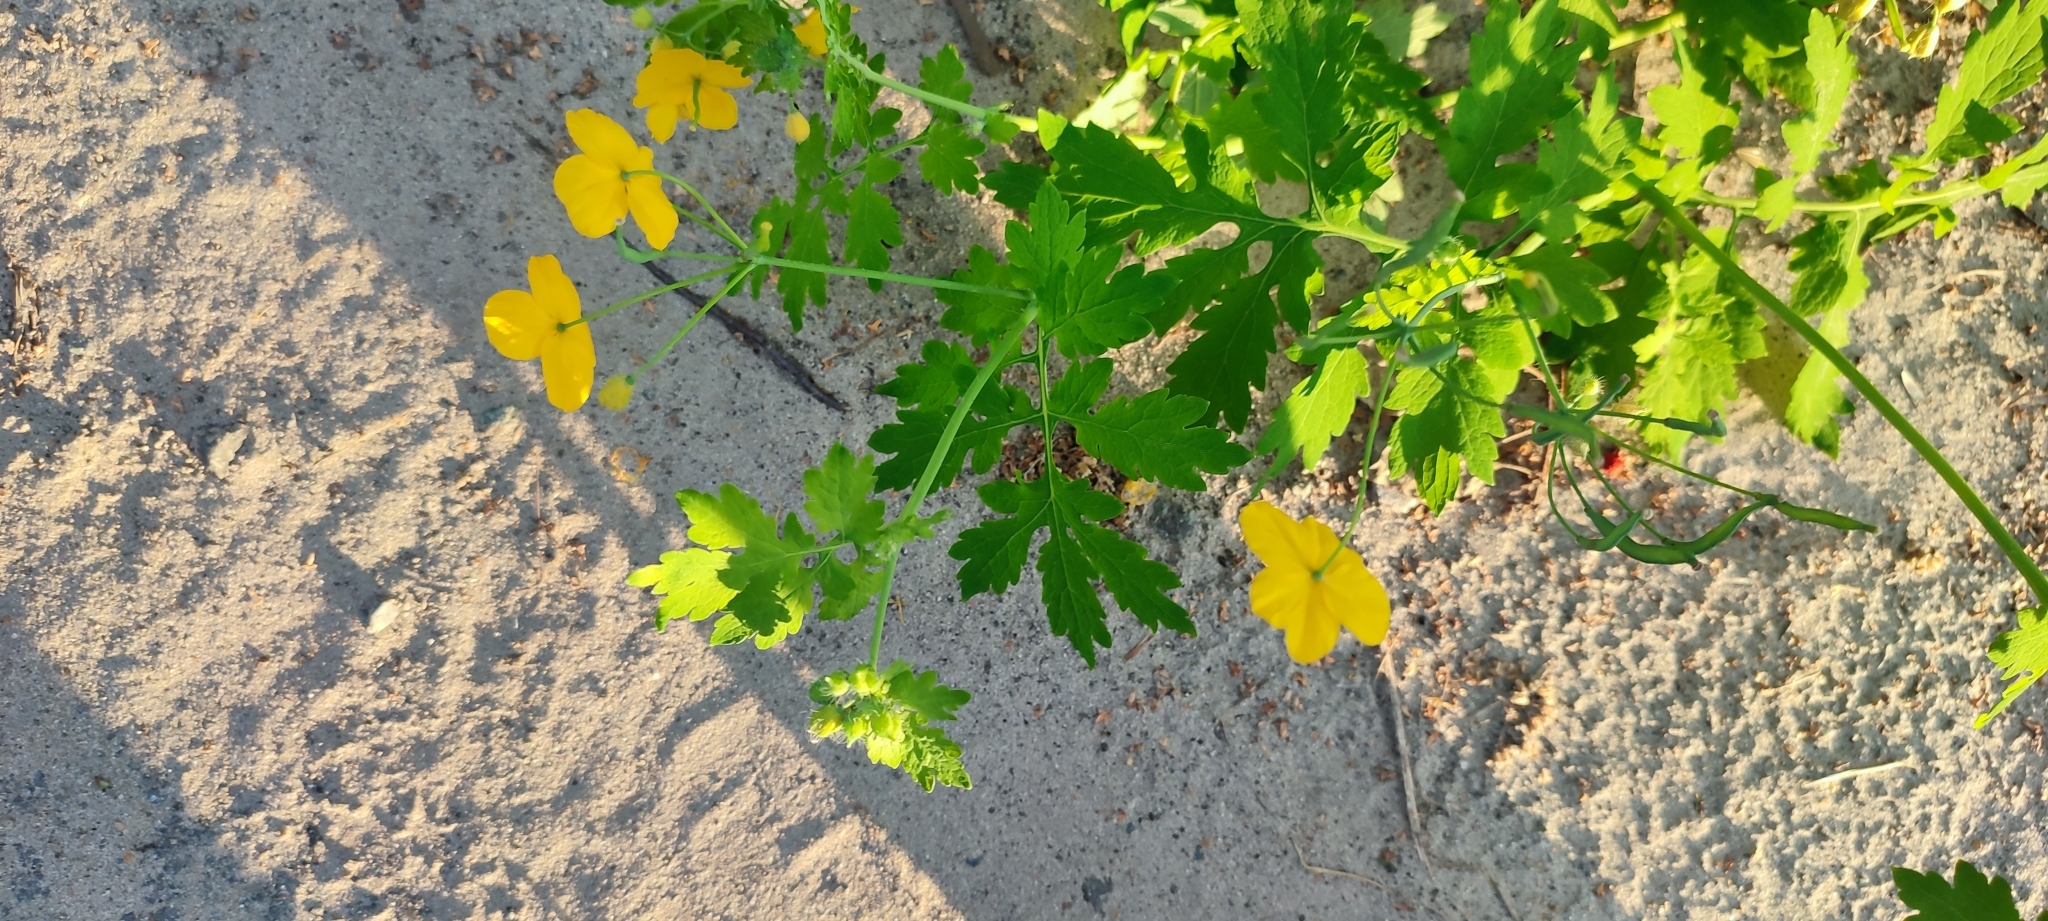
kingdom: Plantae
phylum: Tracheophyta
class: Magnoliopsida
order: Ranunculales
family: Papaveraceae
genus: Chelidonium
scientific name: Chelidonium majus
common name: Greater celandine
